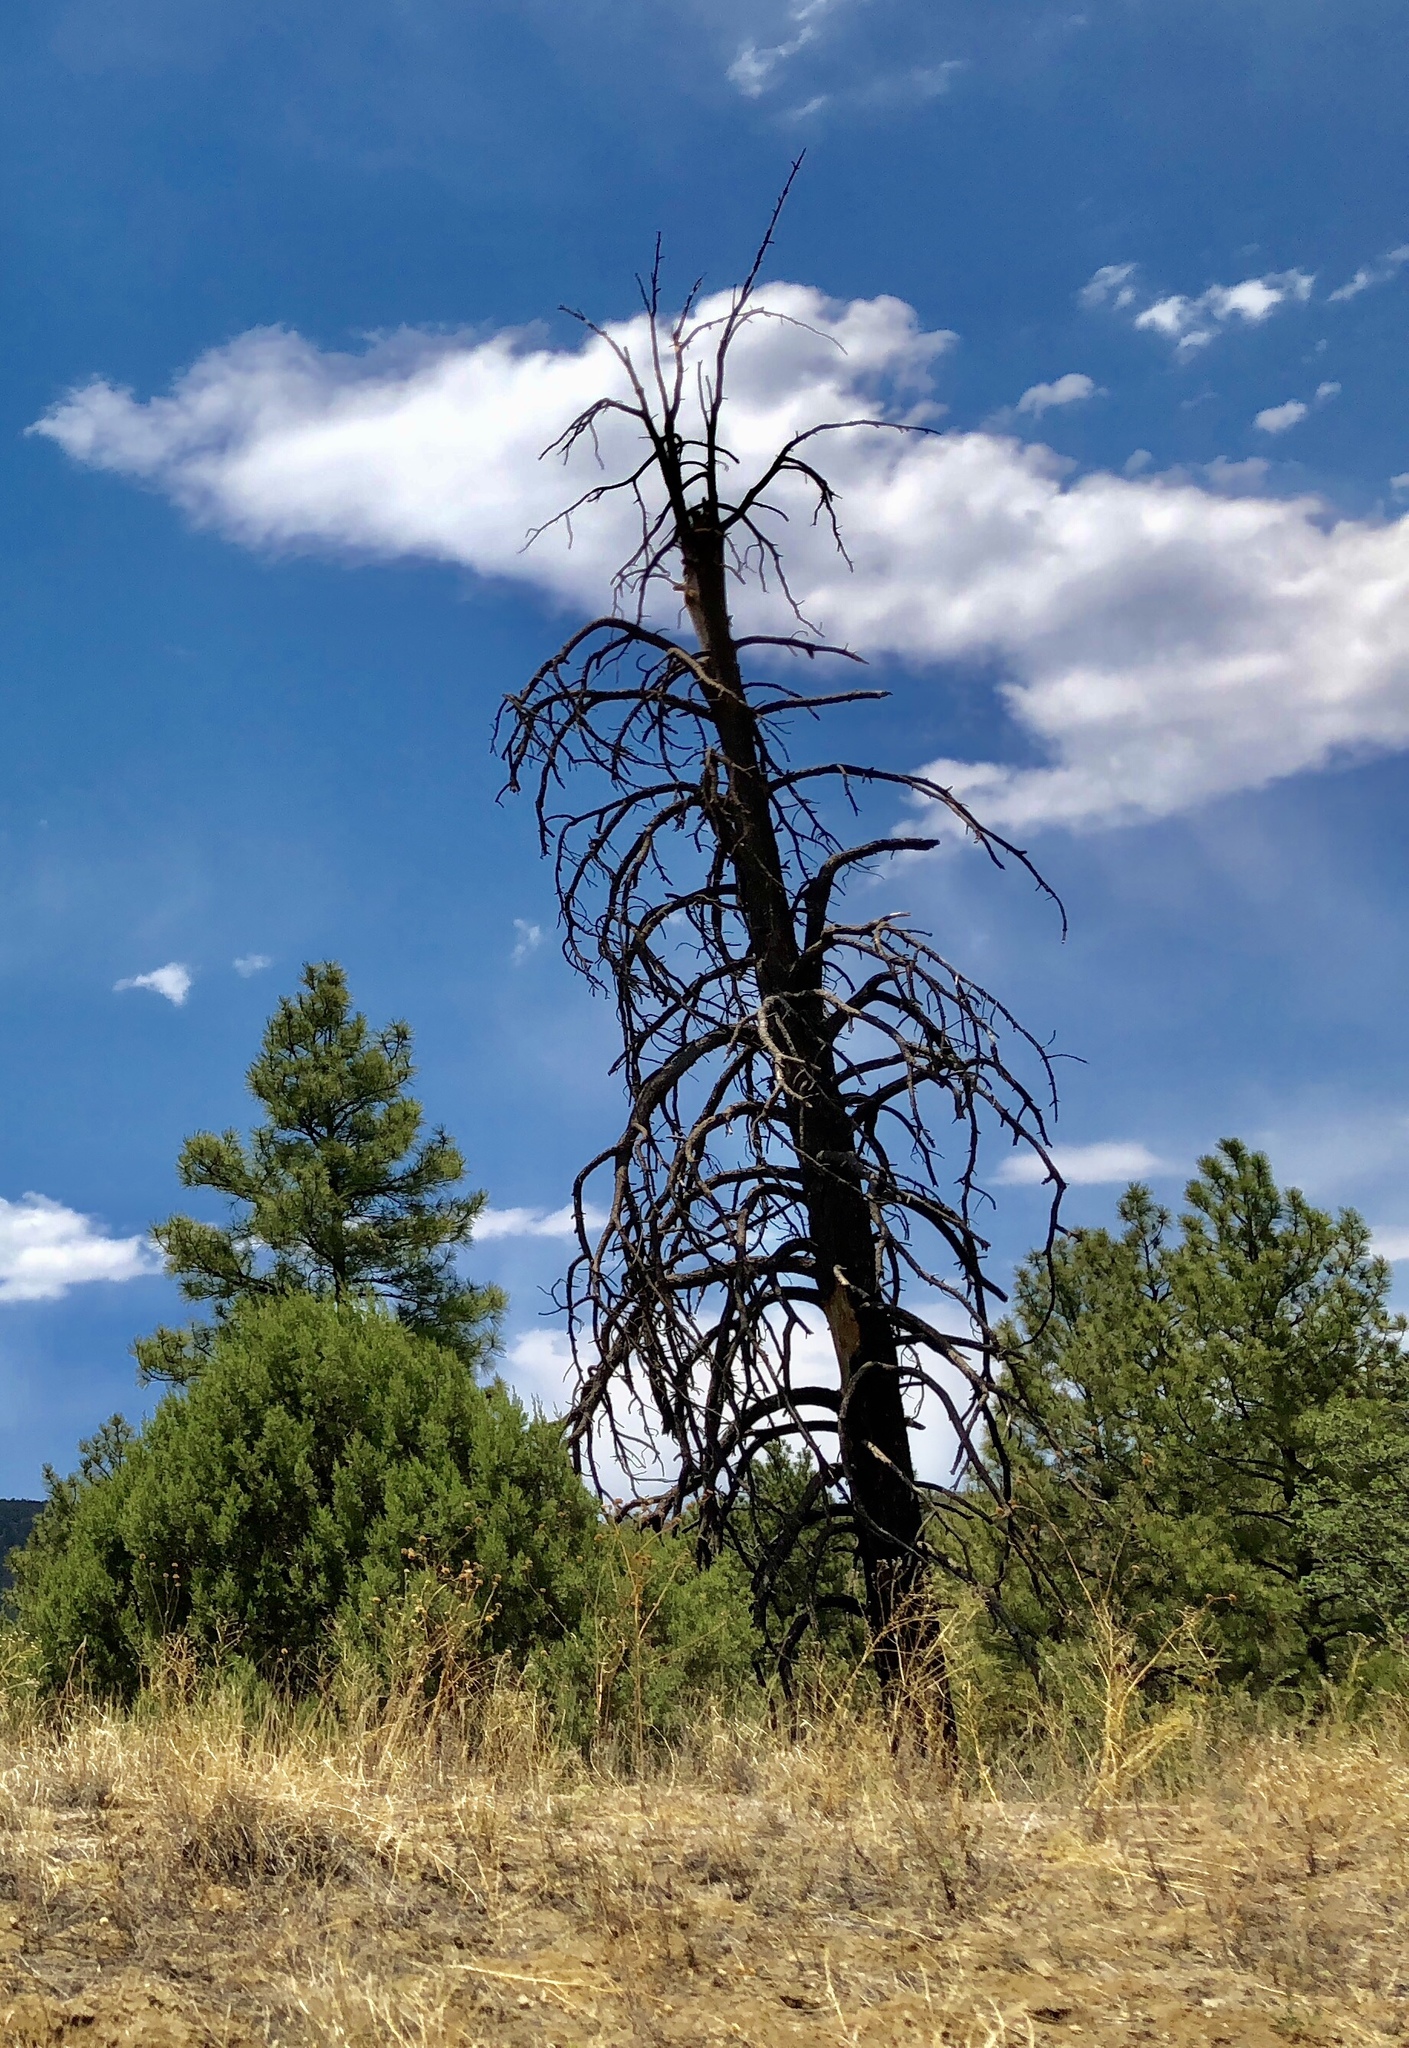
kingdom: Plantae
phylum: Tracheophyta
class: Pinopsida
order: Pinales
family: Pinaceae
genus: Pinus
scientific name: Pinus ponderosa
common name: Western yellow-pine
